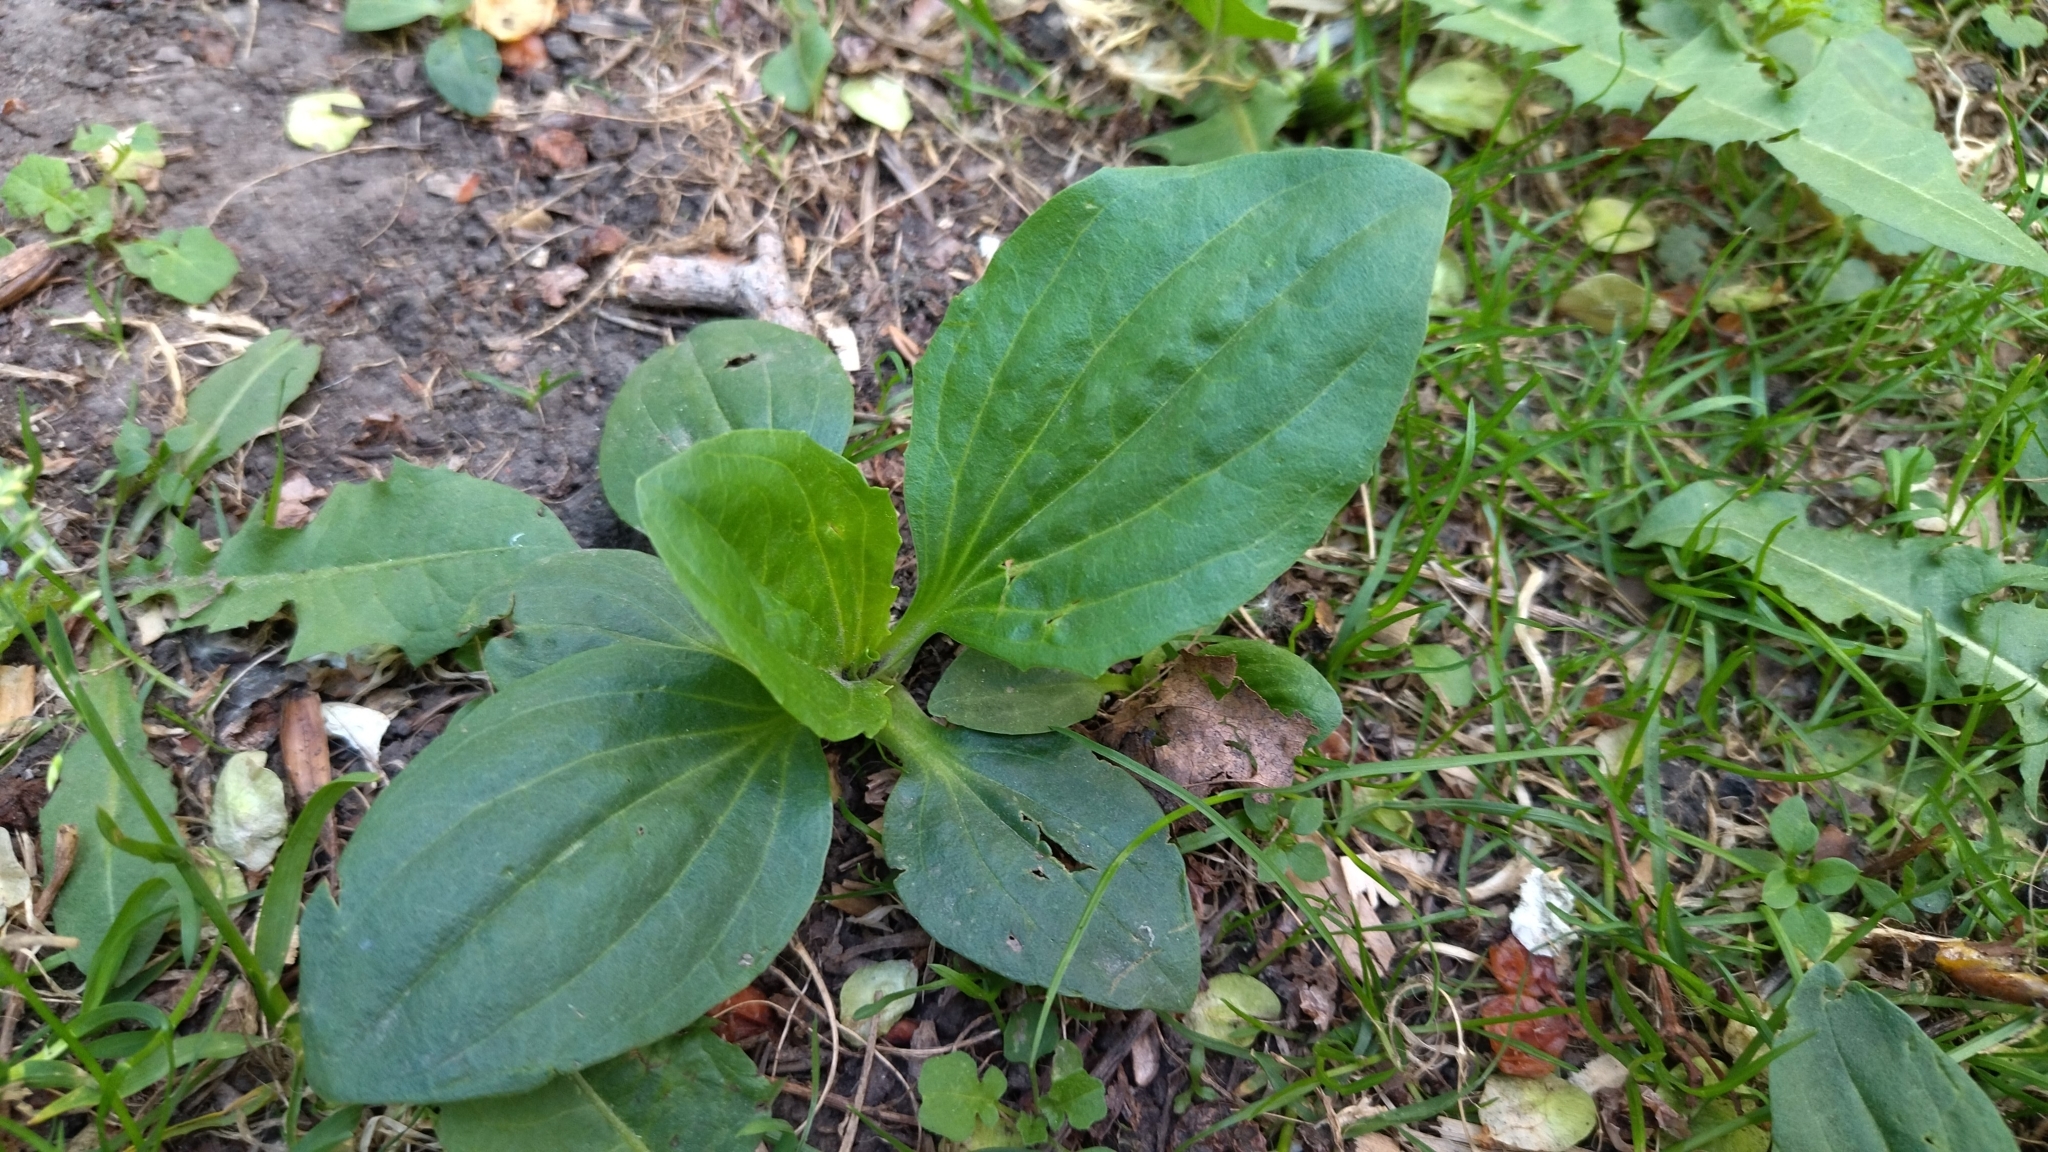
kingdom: Plantae
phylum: Tracheophyta
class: Magnoliopsida
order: Lamiales
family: Plantaginaceae
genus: Plantago
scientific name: Plantago major
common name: Common plantain
